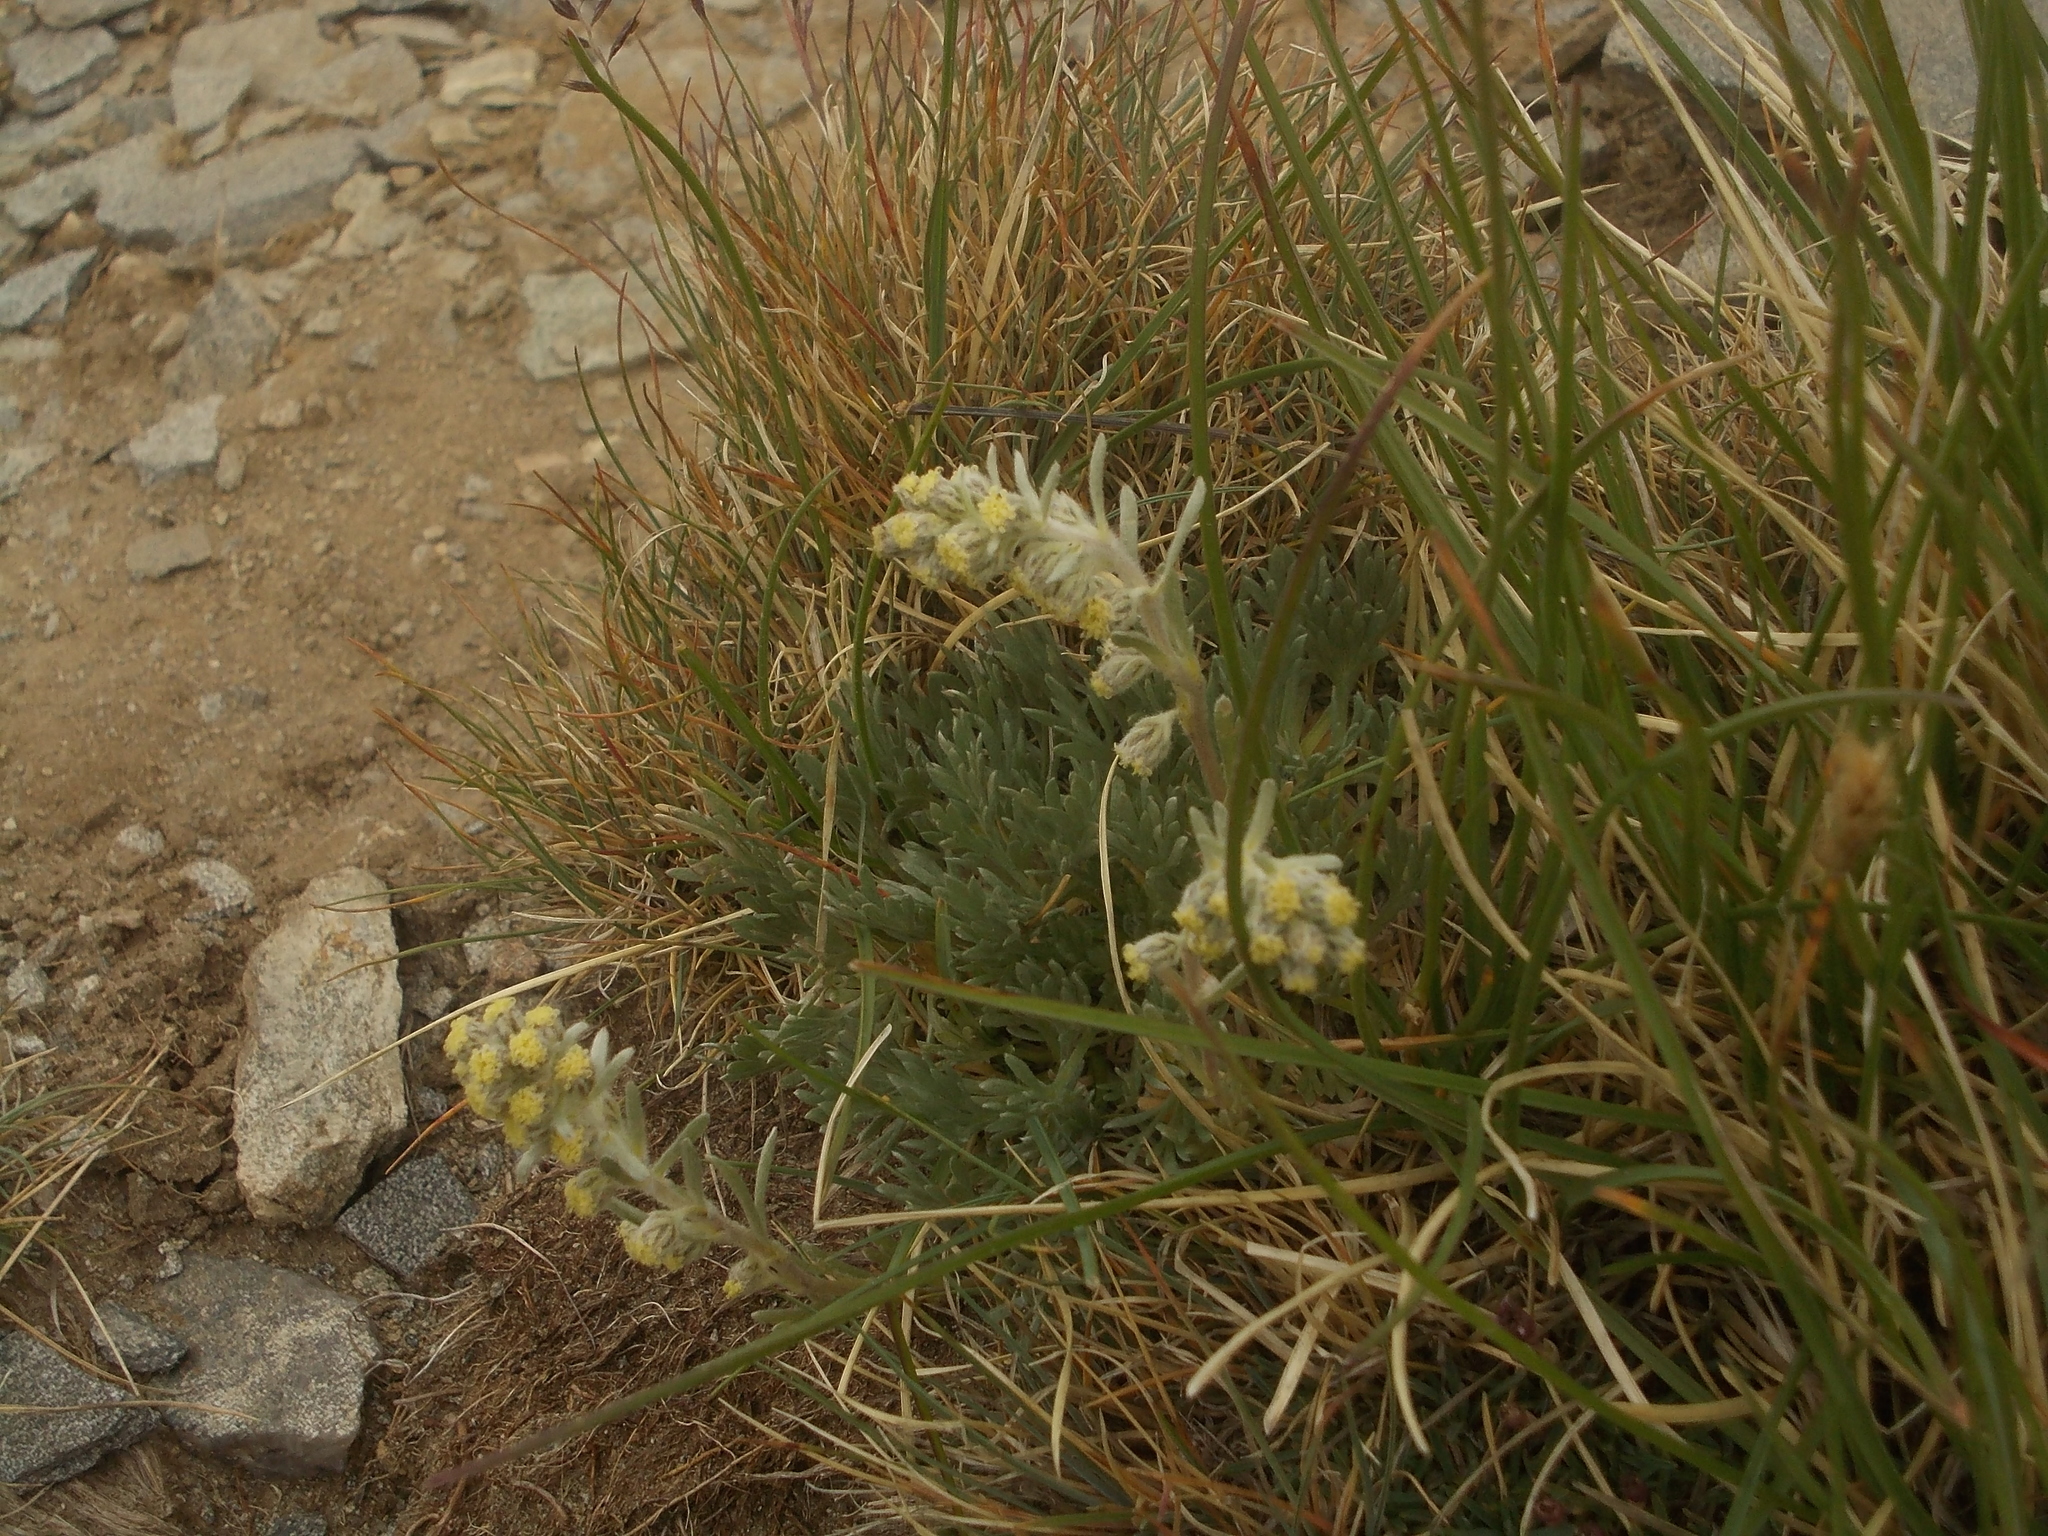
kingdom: Plantae
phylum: Tracheophyta
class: Magnoliopsida
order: Asterales
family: Asteraceae
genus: Artemisia
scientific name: Artemisia eriantha
